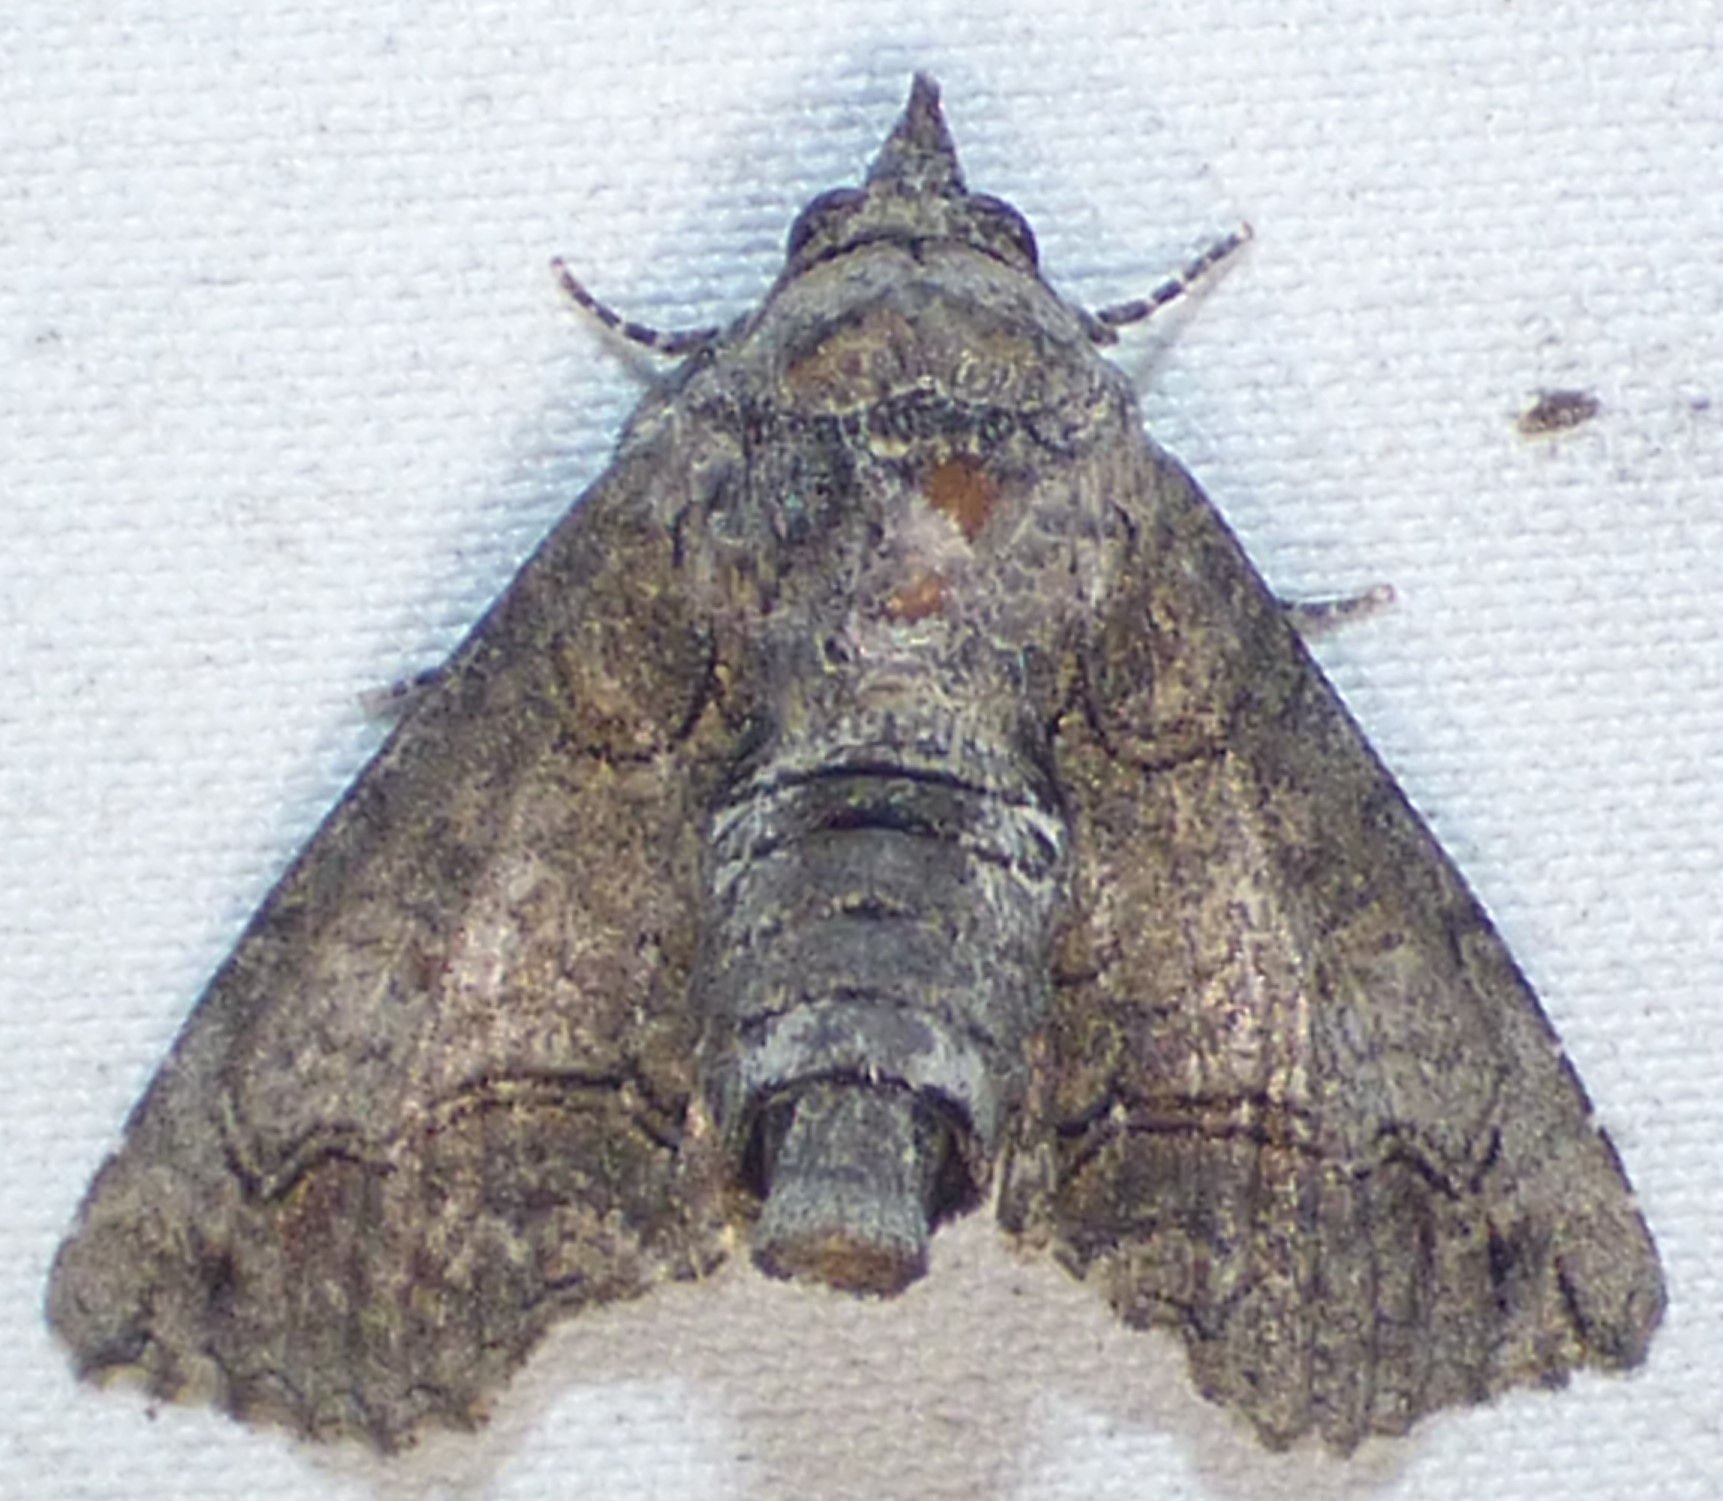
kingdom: Animalia
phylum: Arthropoda
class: Insecta
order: Lepidoptera
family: Euteliidae
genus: Paectes
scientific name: Paectes abrostoloides
